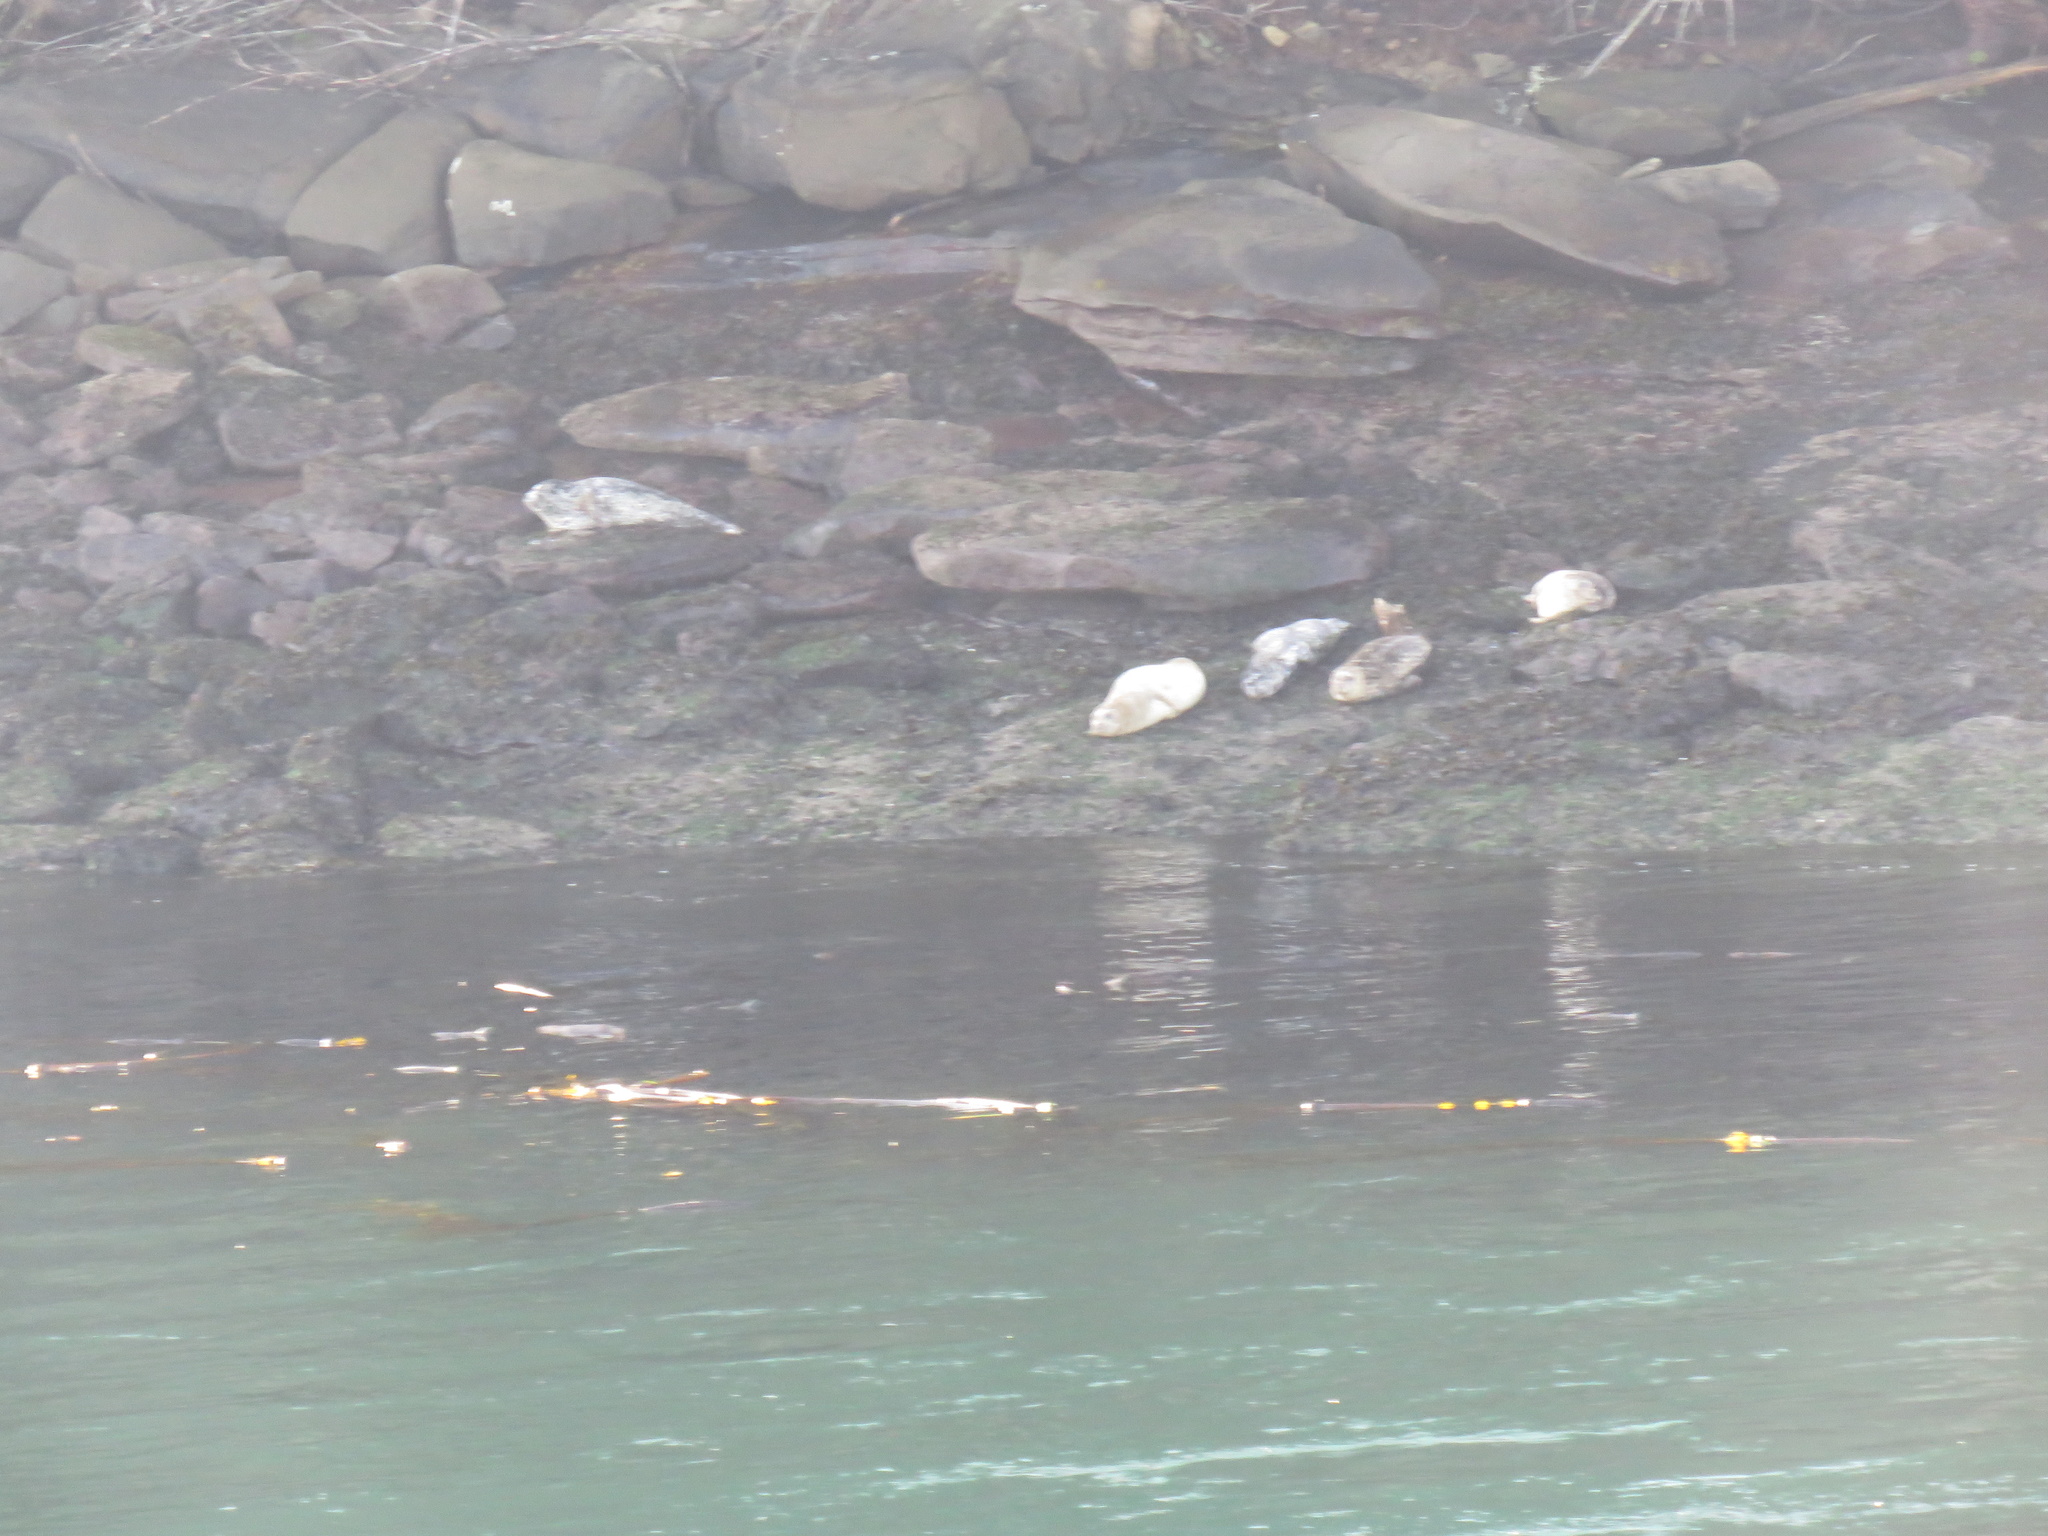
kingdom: Animalia
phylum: Chordata
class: Mammalia
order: Carnivora
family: Phocidae
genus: Phoca
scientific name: Phoca vitulina
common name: Harbor seal
